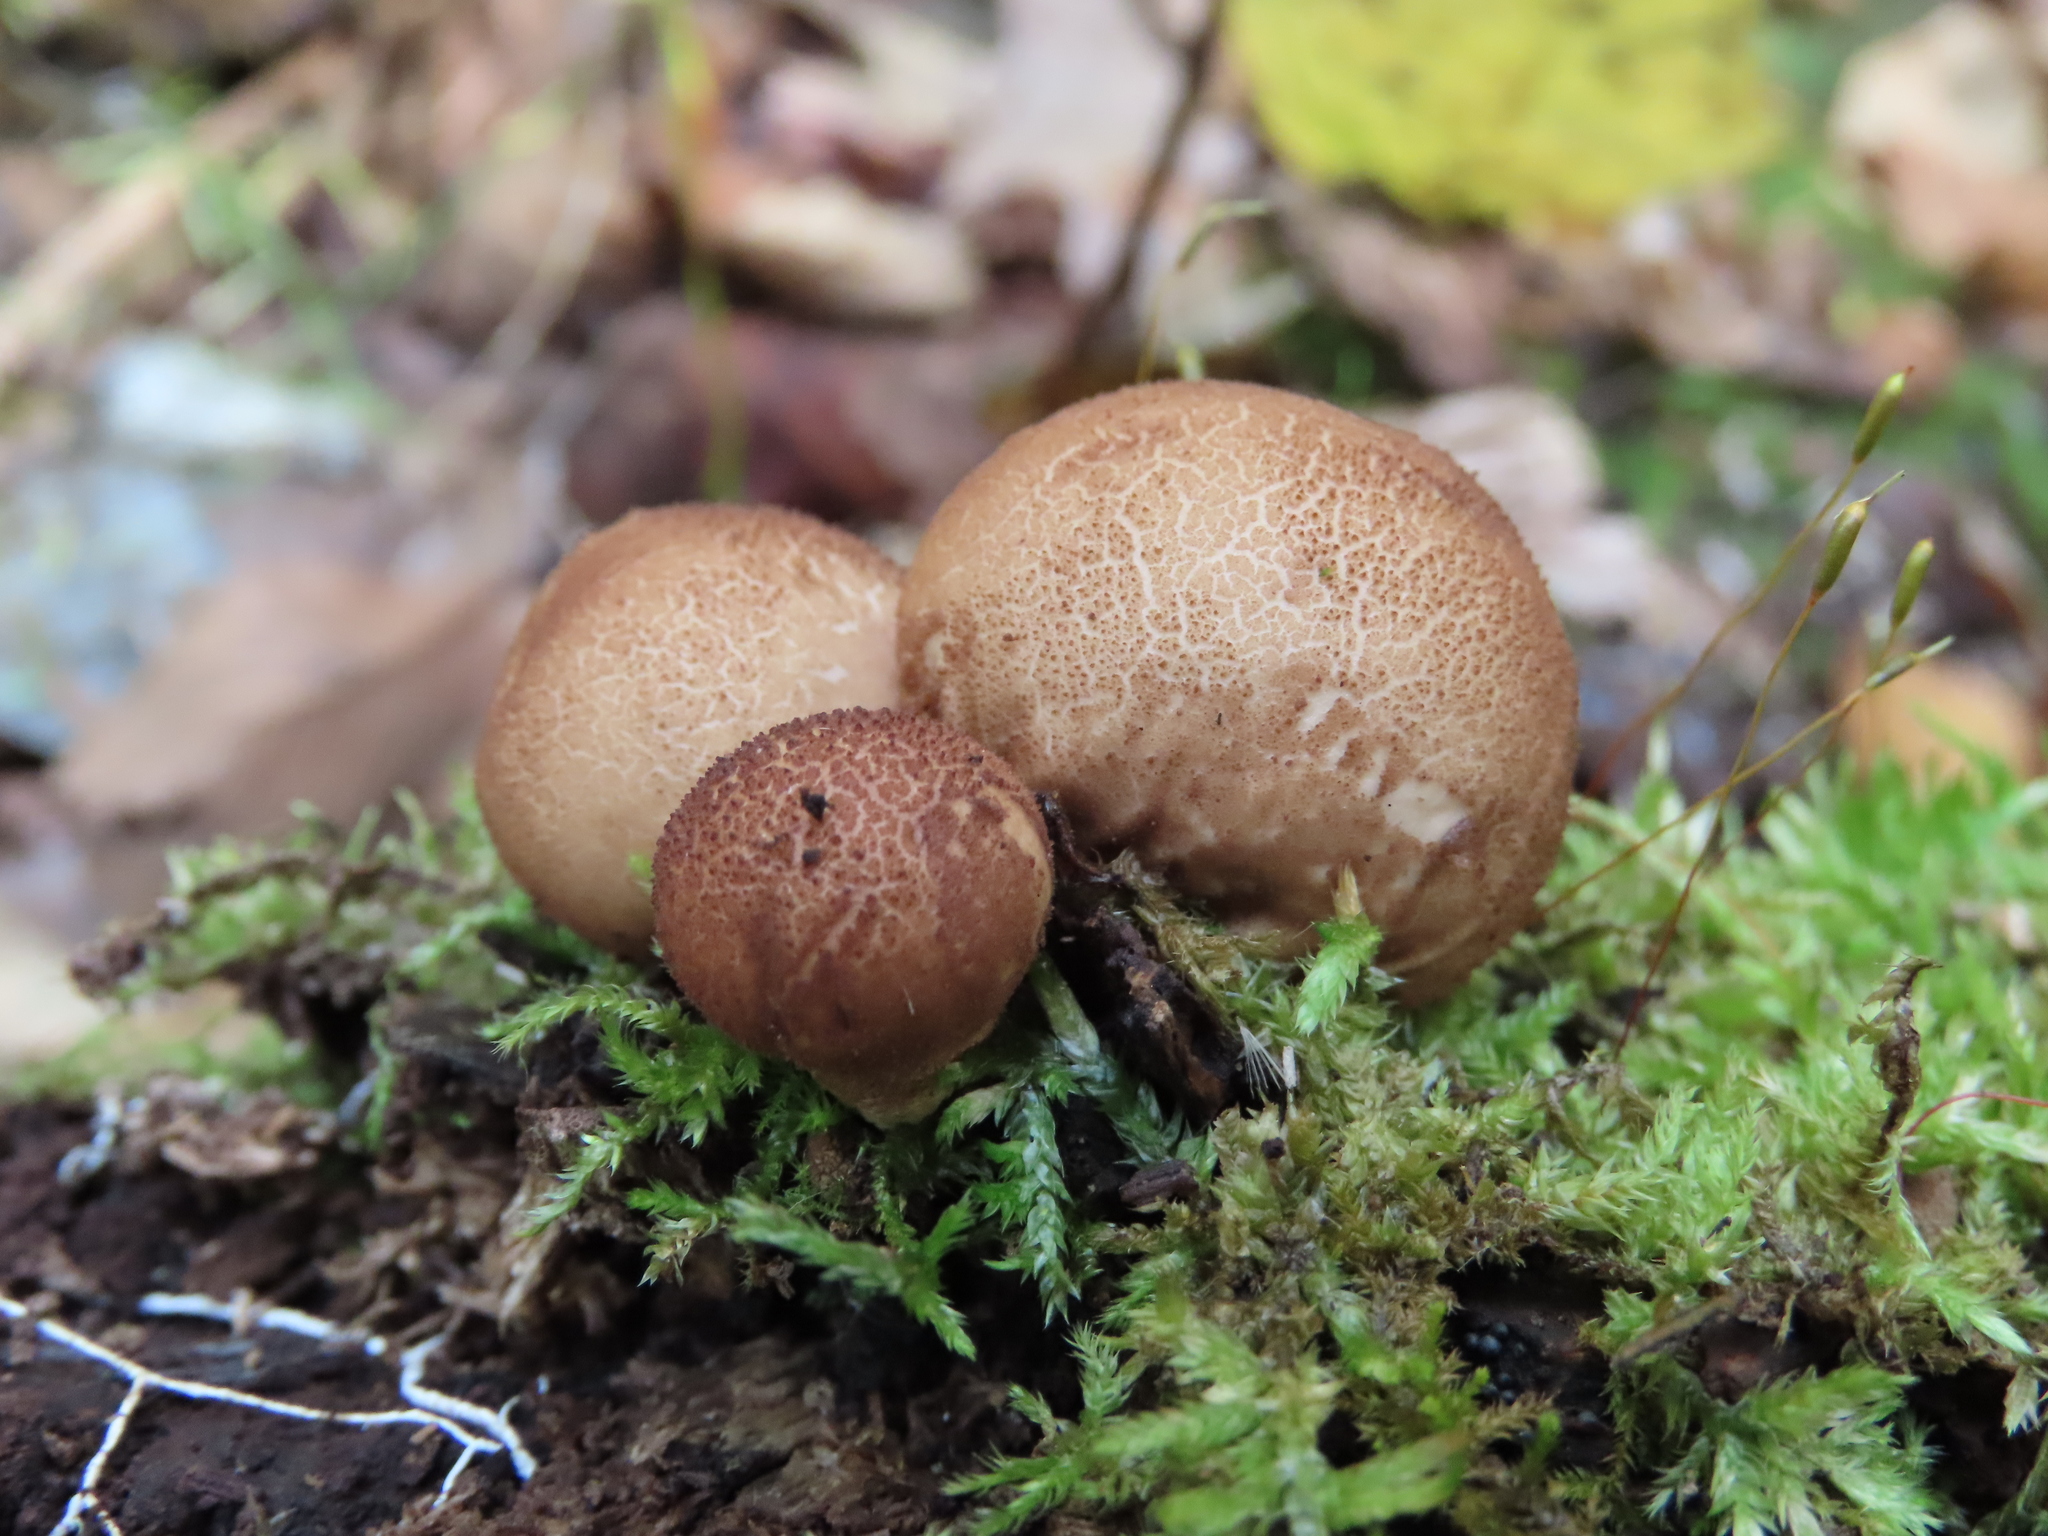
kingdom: Fungi
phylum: Basidiomycota
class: Agaricomycetes
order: Agaricales
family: Lycoperdaceae
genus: Apioperdon
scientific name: Apioperdon pyriforme
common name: Pear-shaped puffball
